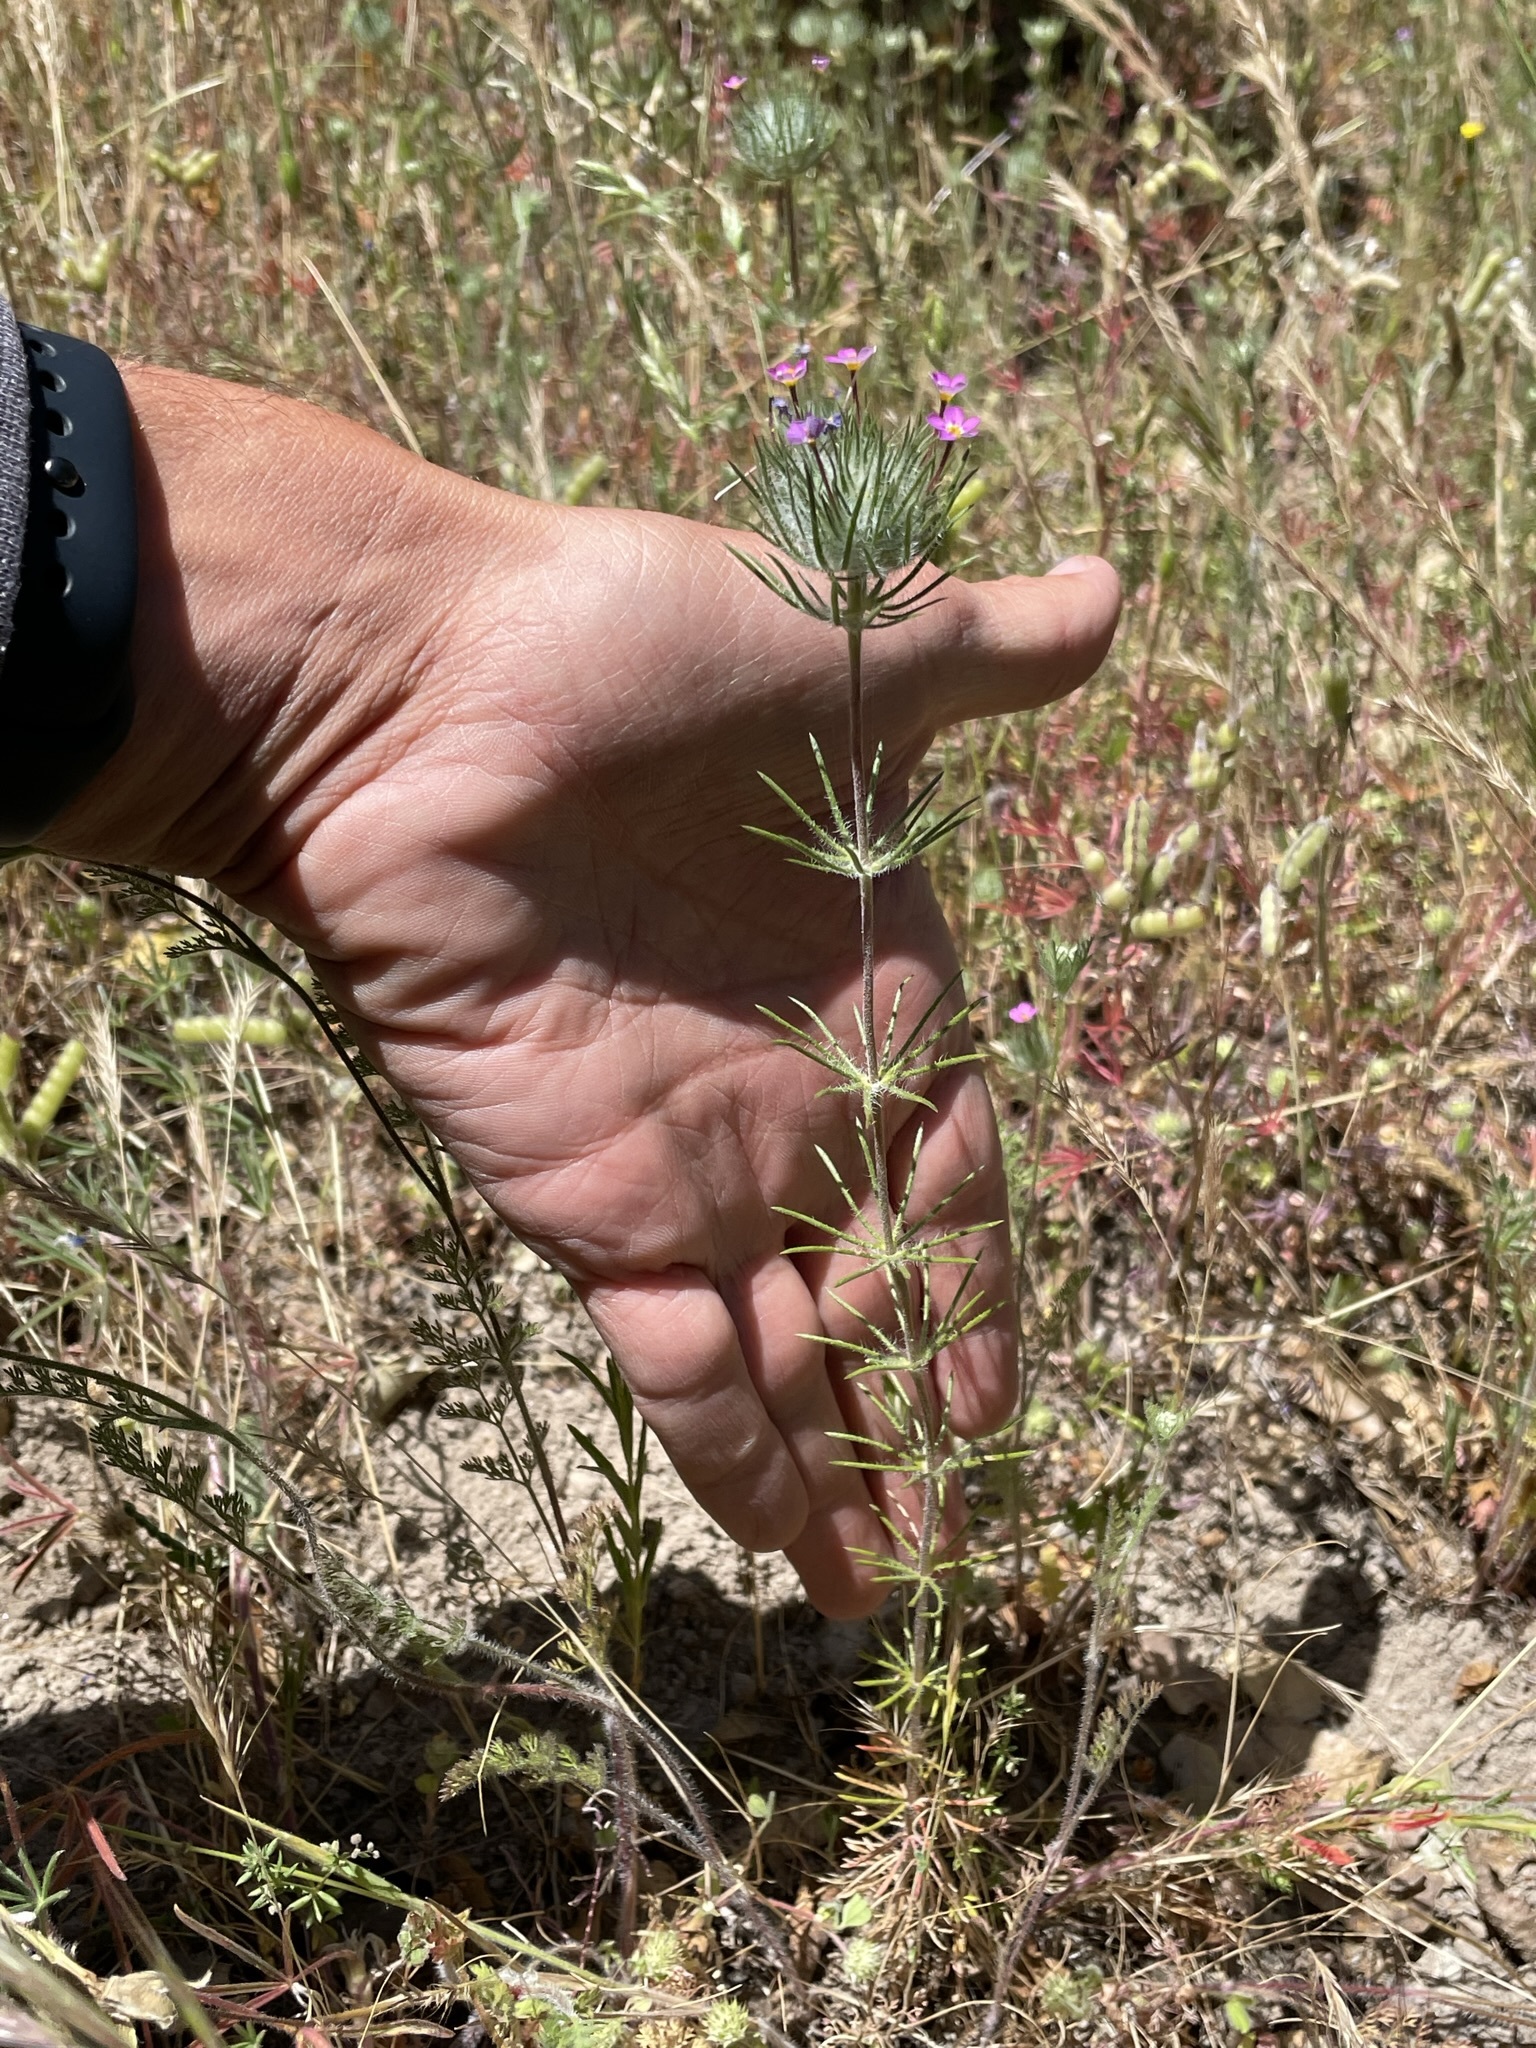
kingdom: Plantae
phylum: Tracheophyta
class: Magnoliopsida
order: Ericales
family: Polemoniaceae
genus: Leptosiphon
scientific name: Leptosiphon ciliatus
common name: Whiskerbrush
